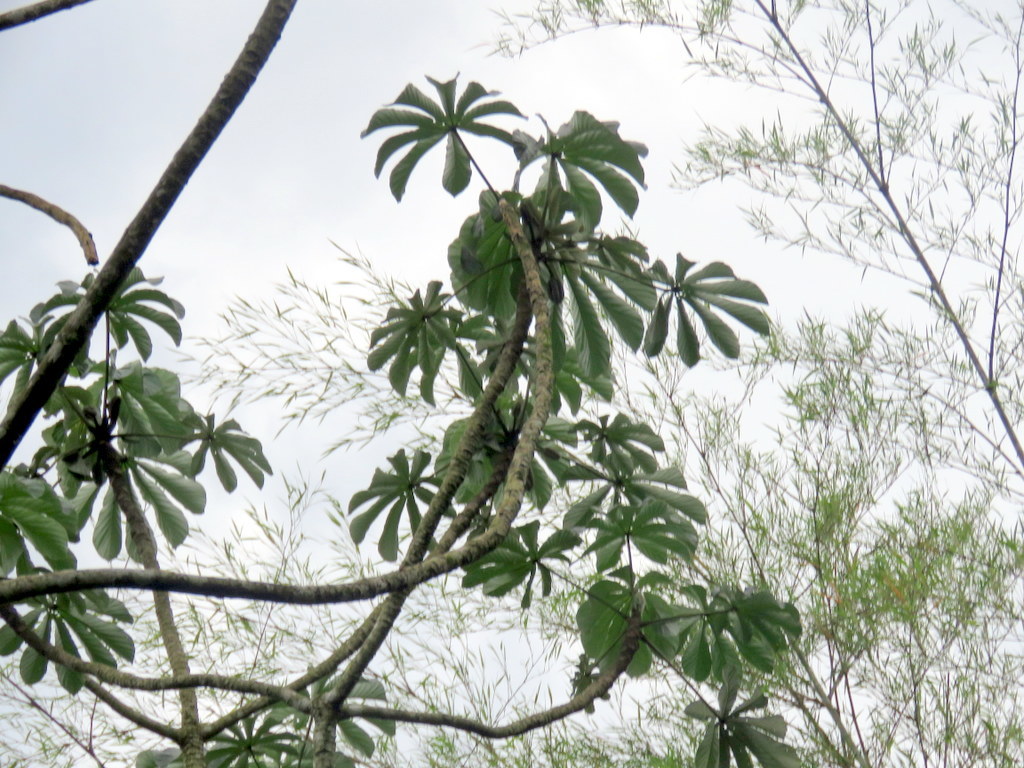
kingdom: Plantae
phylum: Tracheophyta
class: Magnoliopsida
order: Rosales
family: Urticaceae
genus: Cecropia
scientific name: Cecropia pachystachya
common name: Ambay pumpwood
